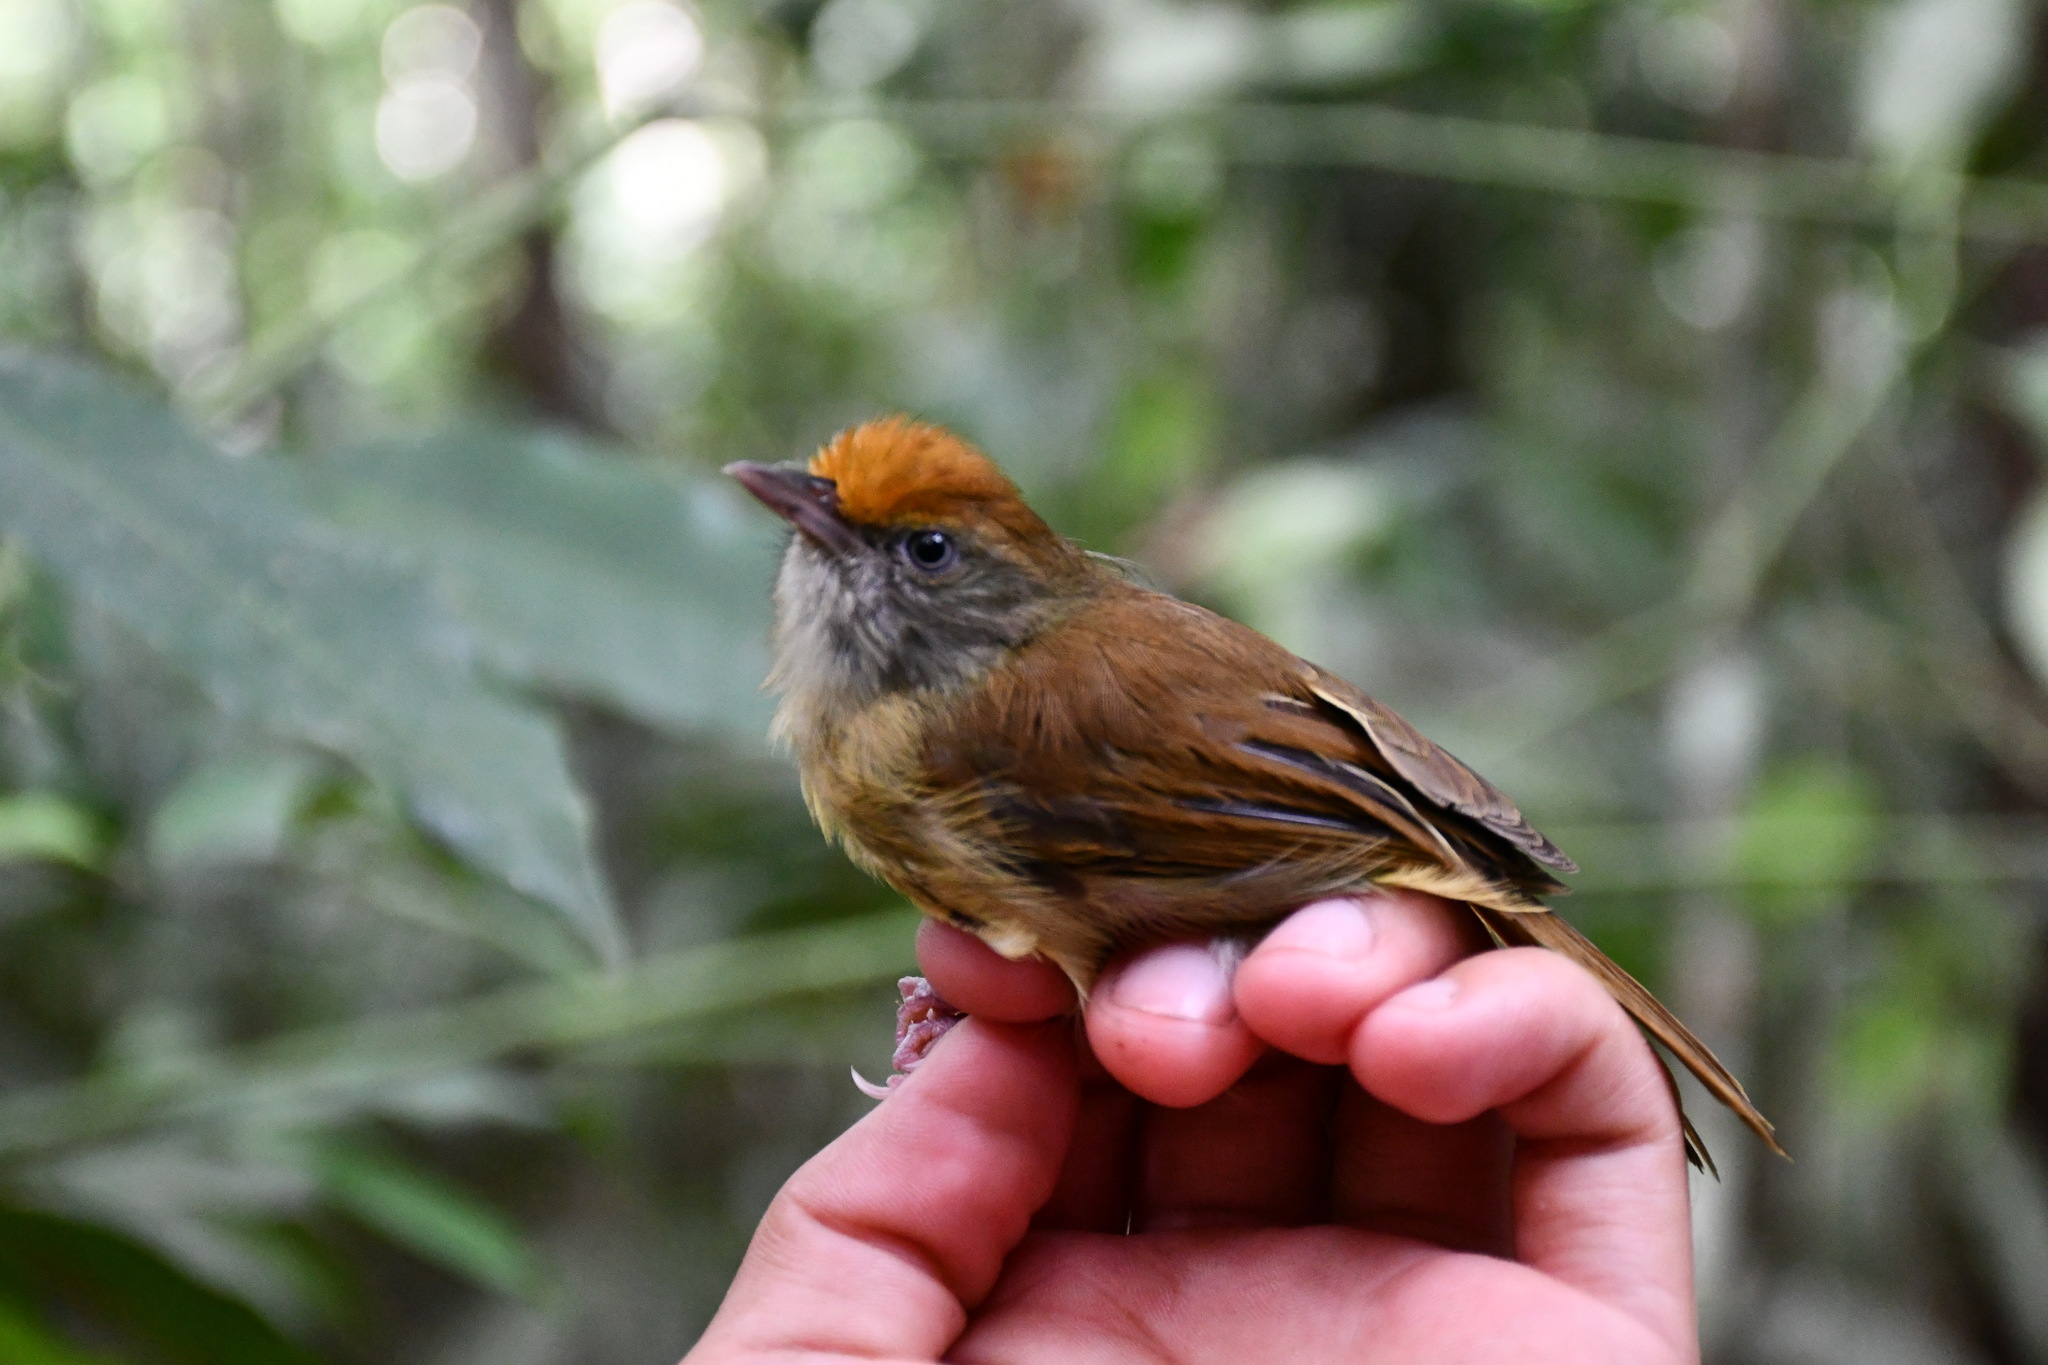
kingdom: Animalia
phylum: Chordata
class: Aves
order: Passeriformes
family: Vireonidae
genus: Hylophilus
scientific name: Hylophilus ochraceiceps
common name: Tawny-crowned greenlet
